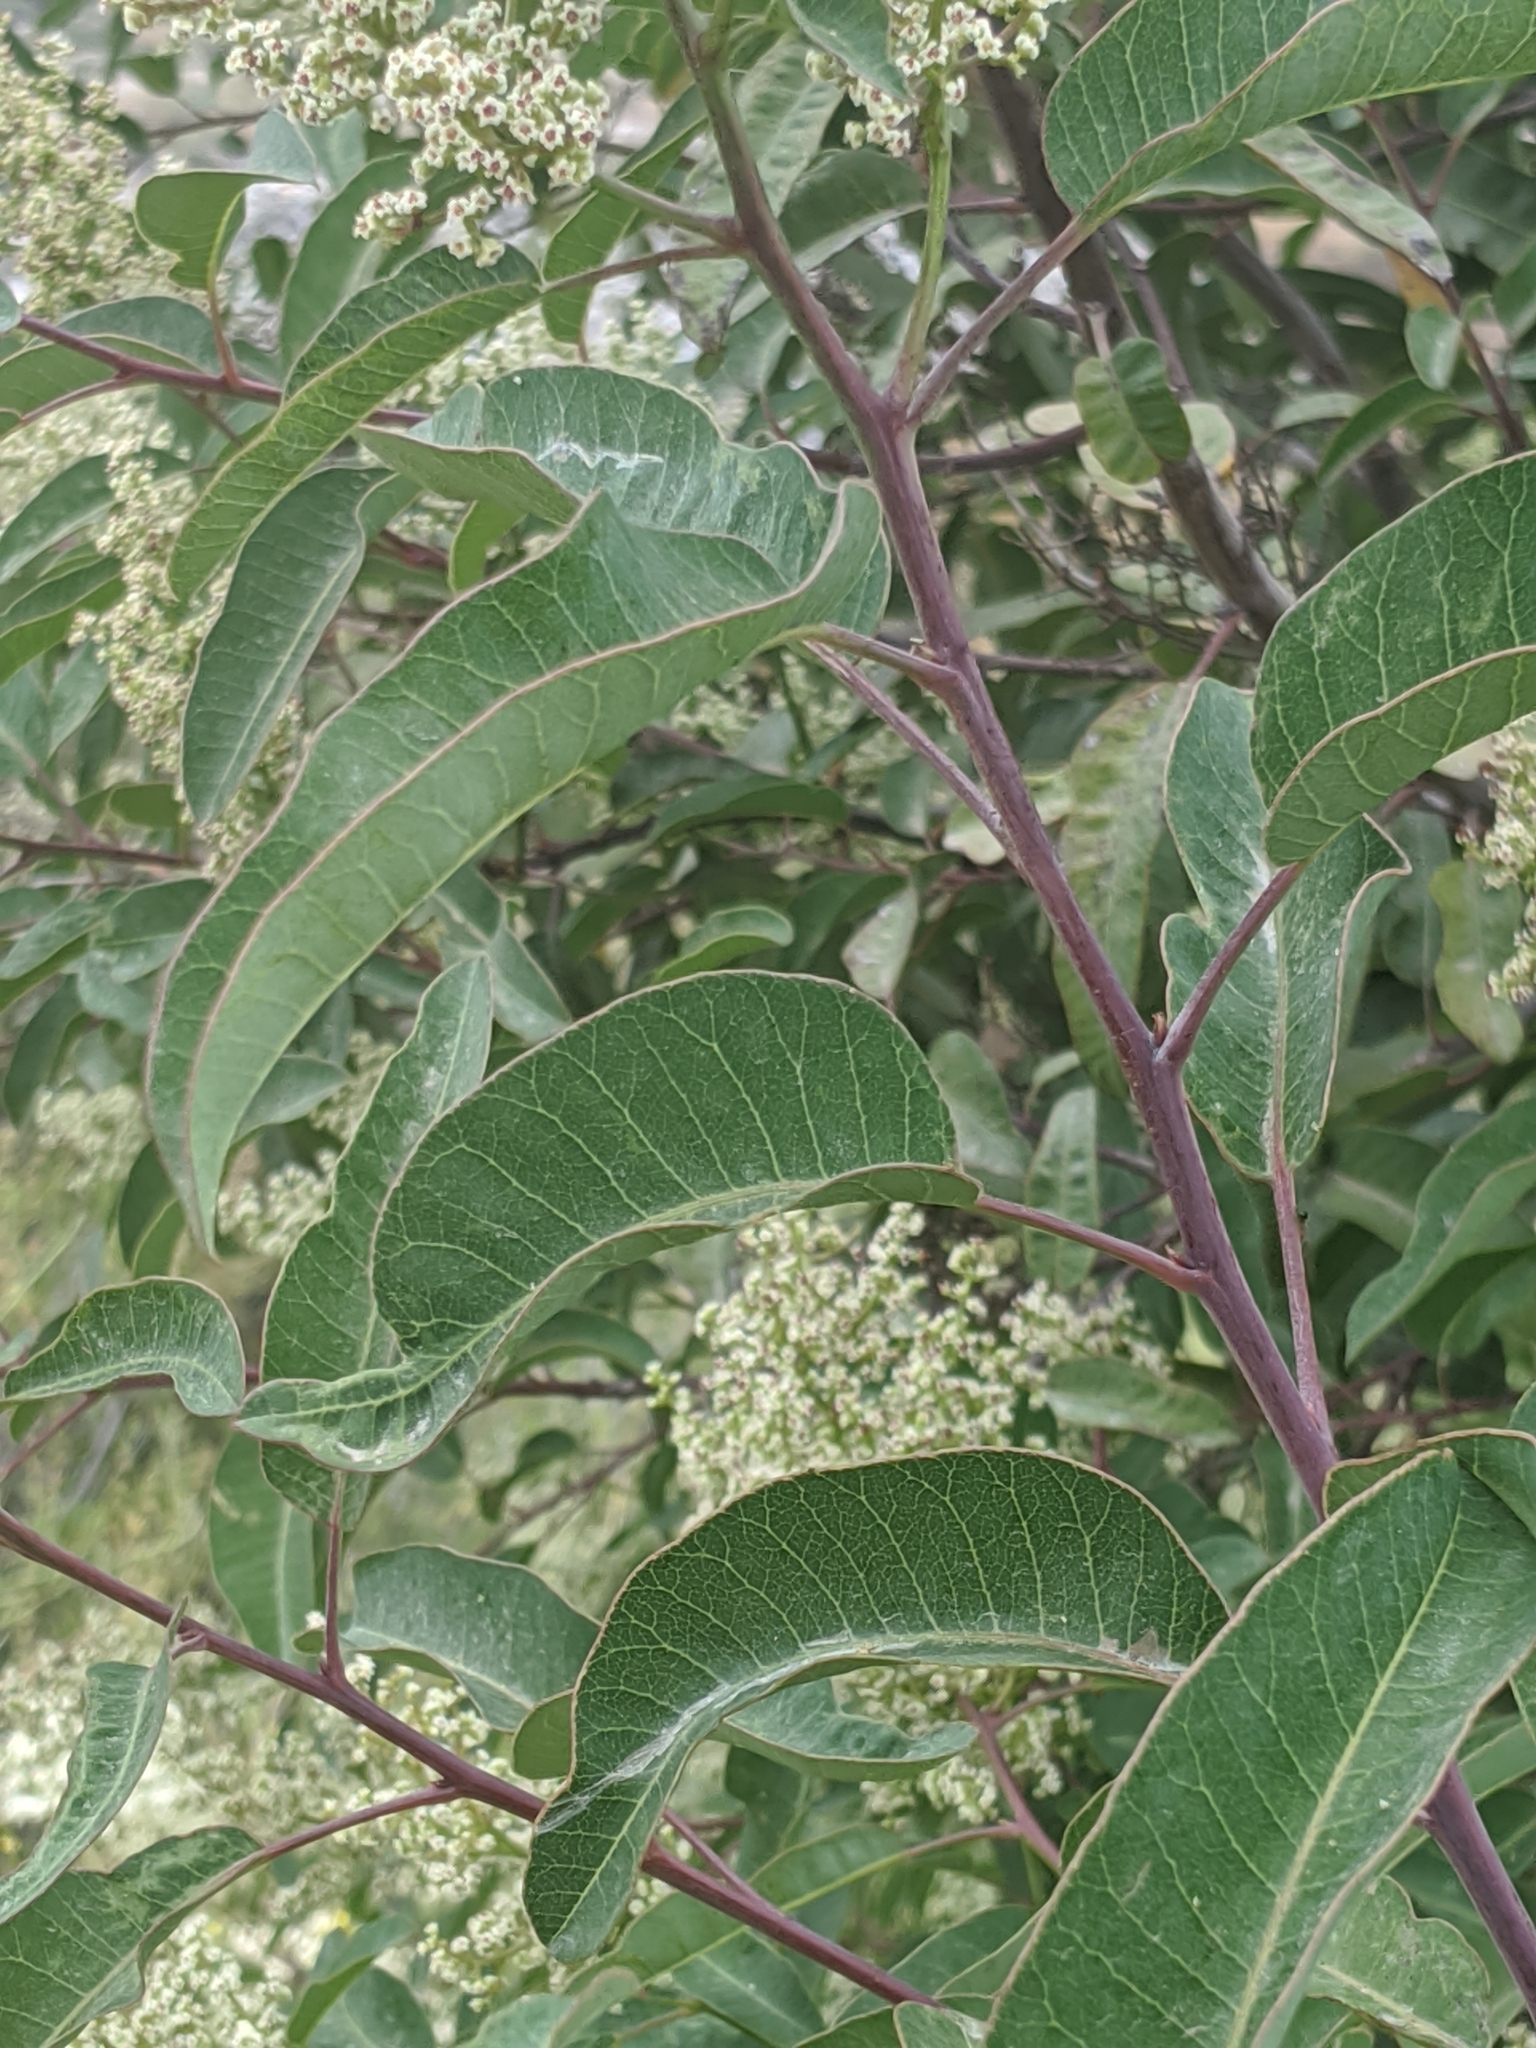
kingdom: Plantae
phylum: Tracheophyta
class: Magnoliopsida
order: Sapindales
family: Anacardiaceae
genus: Malosma
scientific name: Malosma laurina
